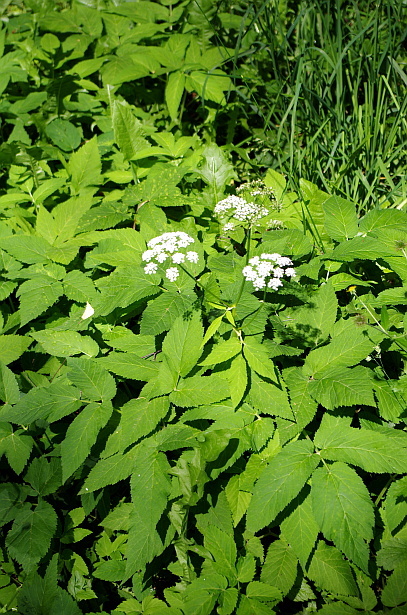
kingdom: Plantae
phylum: Tracheophyta
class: Magnoliopsida
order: Apiales
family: Apiaceae
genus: Aegopodium
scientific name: Aegopodium podagraria
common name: Ground-elder
